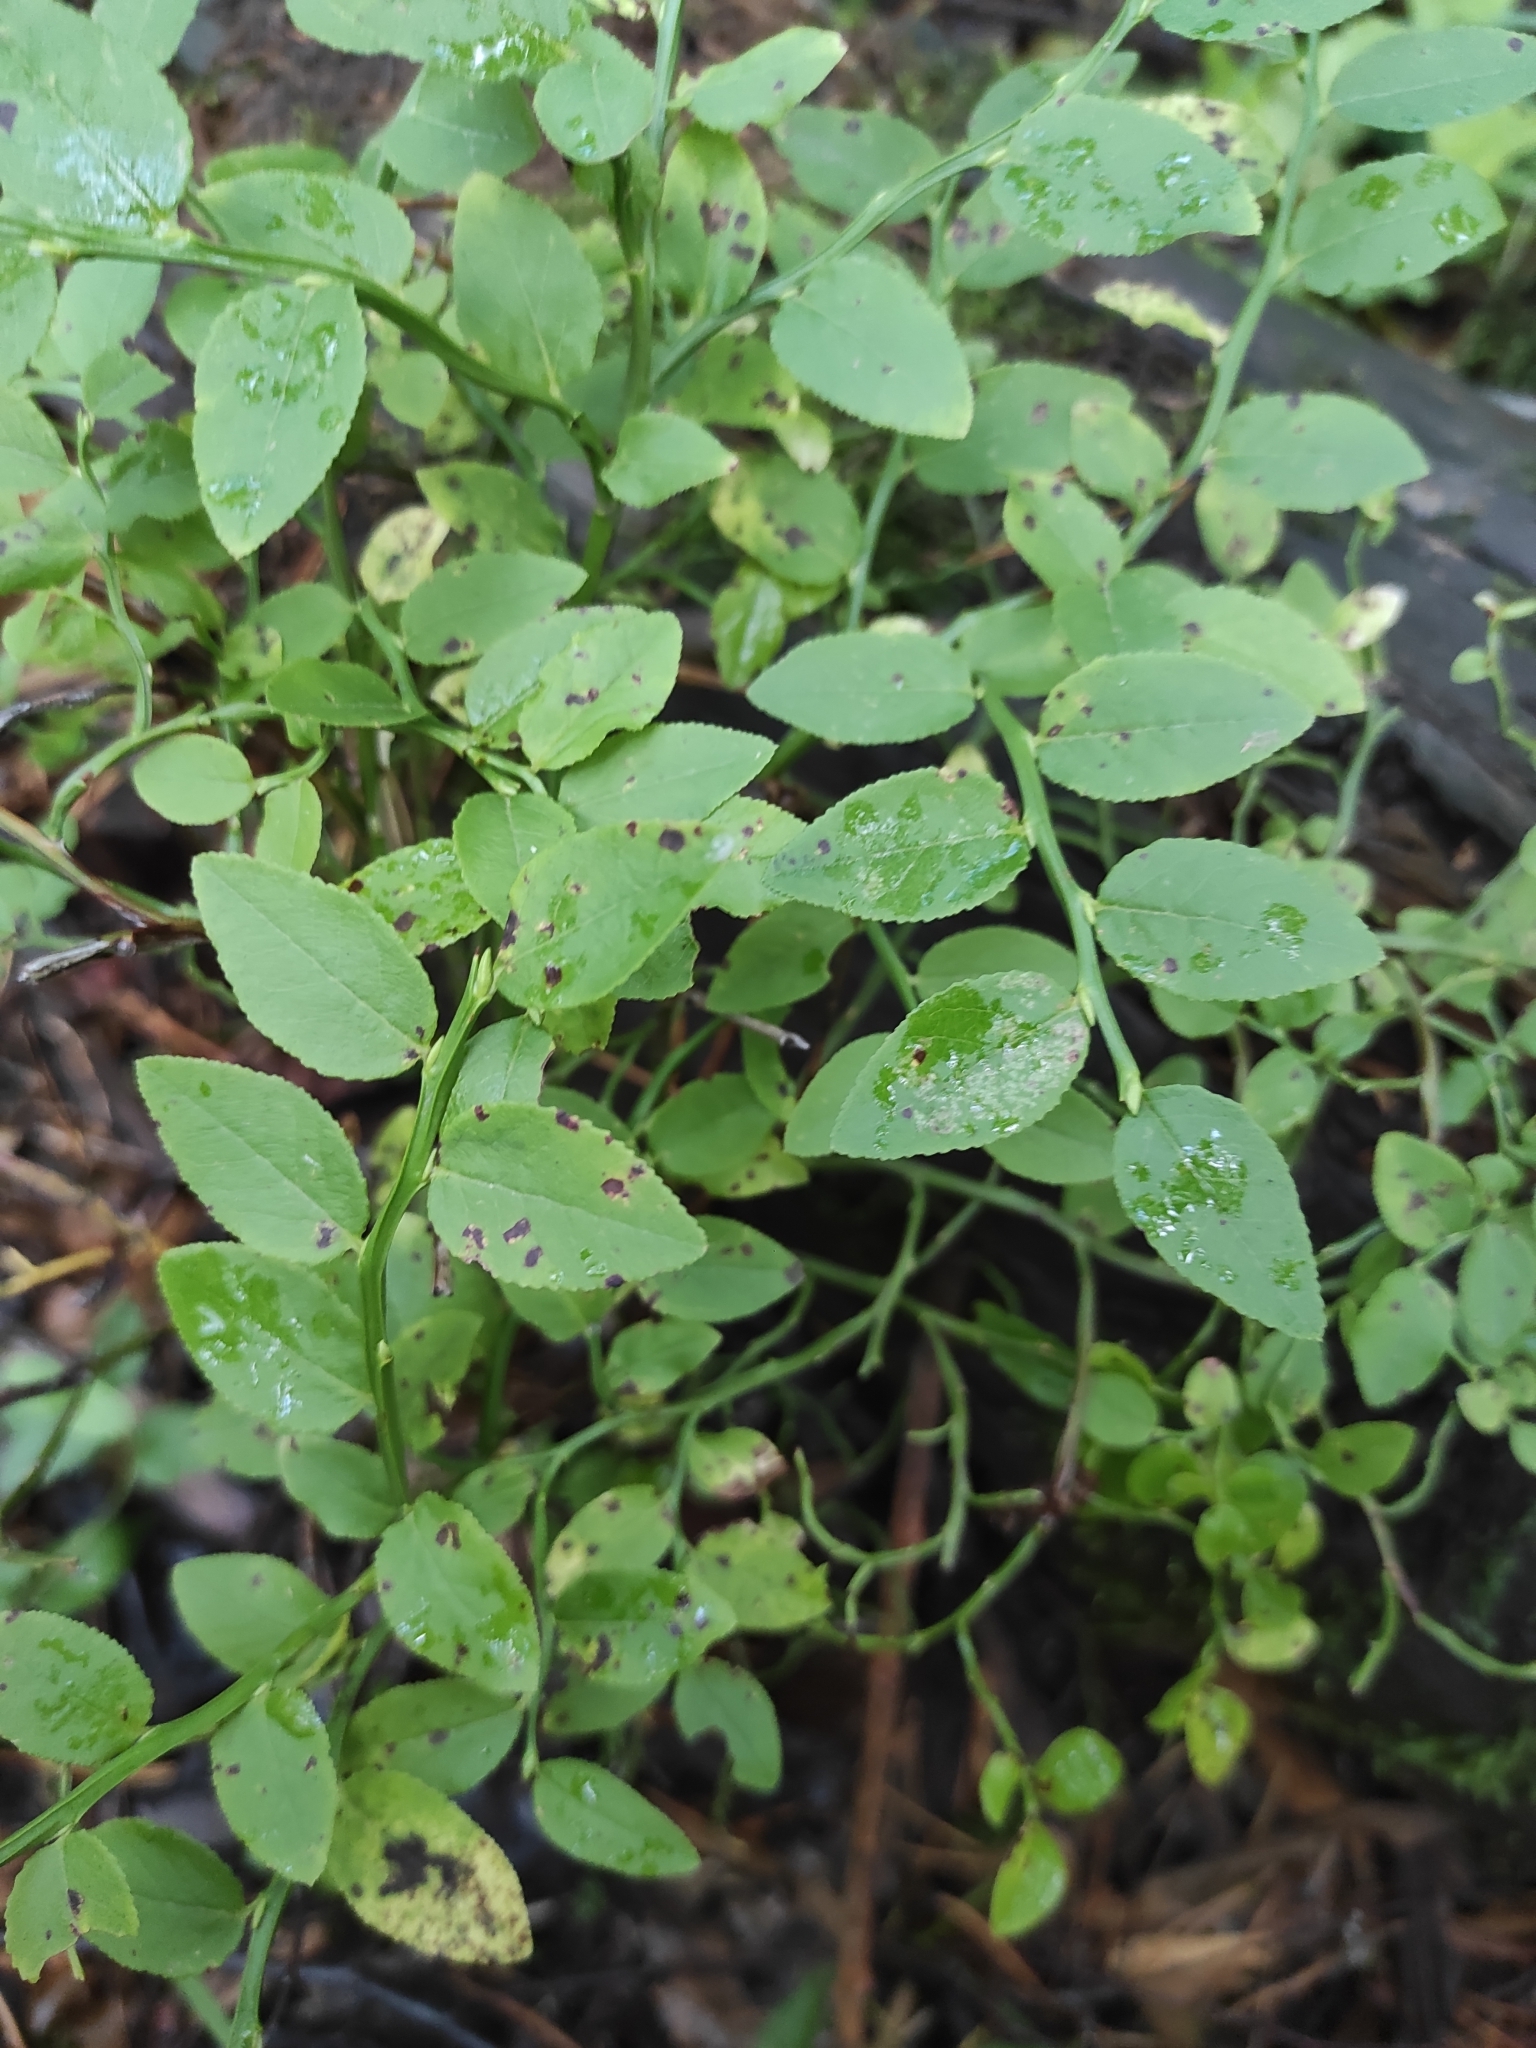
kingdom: Plantae
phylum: Tracheophyta
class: Magnoliopsida
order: Ericales
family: Ericaceae
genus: Vaccinium
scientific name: Vaccinium myrtillus
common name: Bilberry
